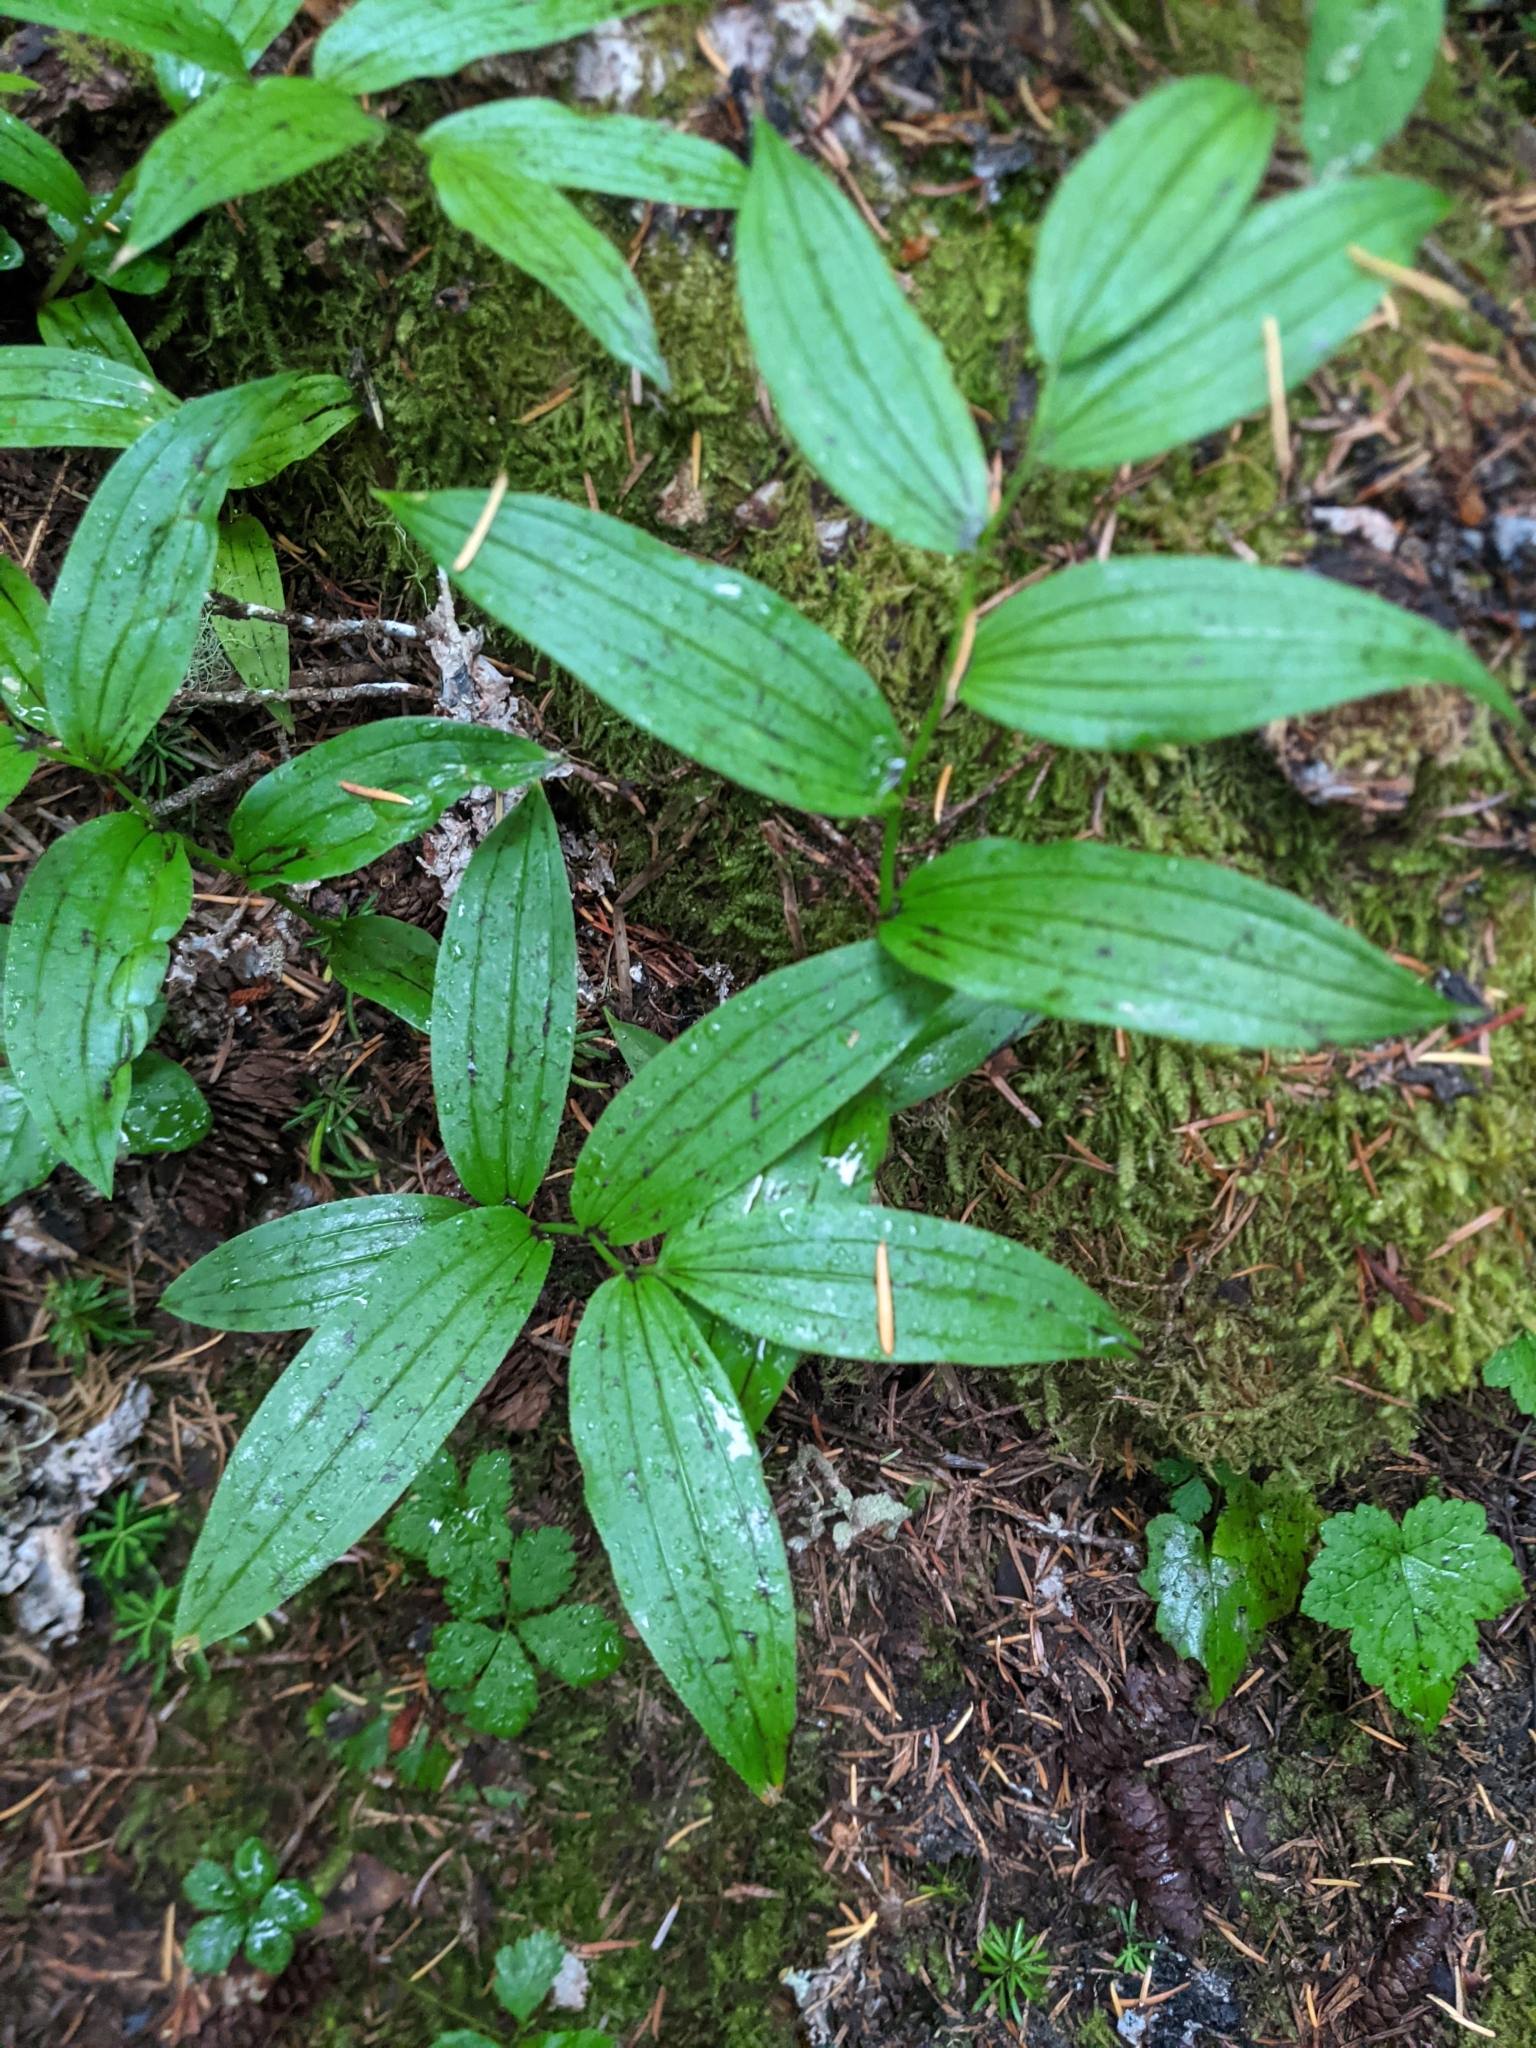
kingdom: Plantae
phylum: Tracheophyta
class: Liliopsida
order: Liliales
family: Liliaceae
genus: Streptopus
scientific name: Streptopus lanceolatus
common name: Rose mandarin
